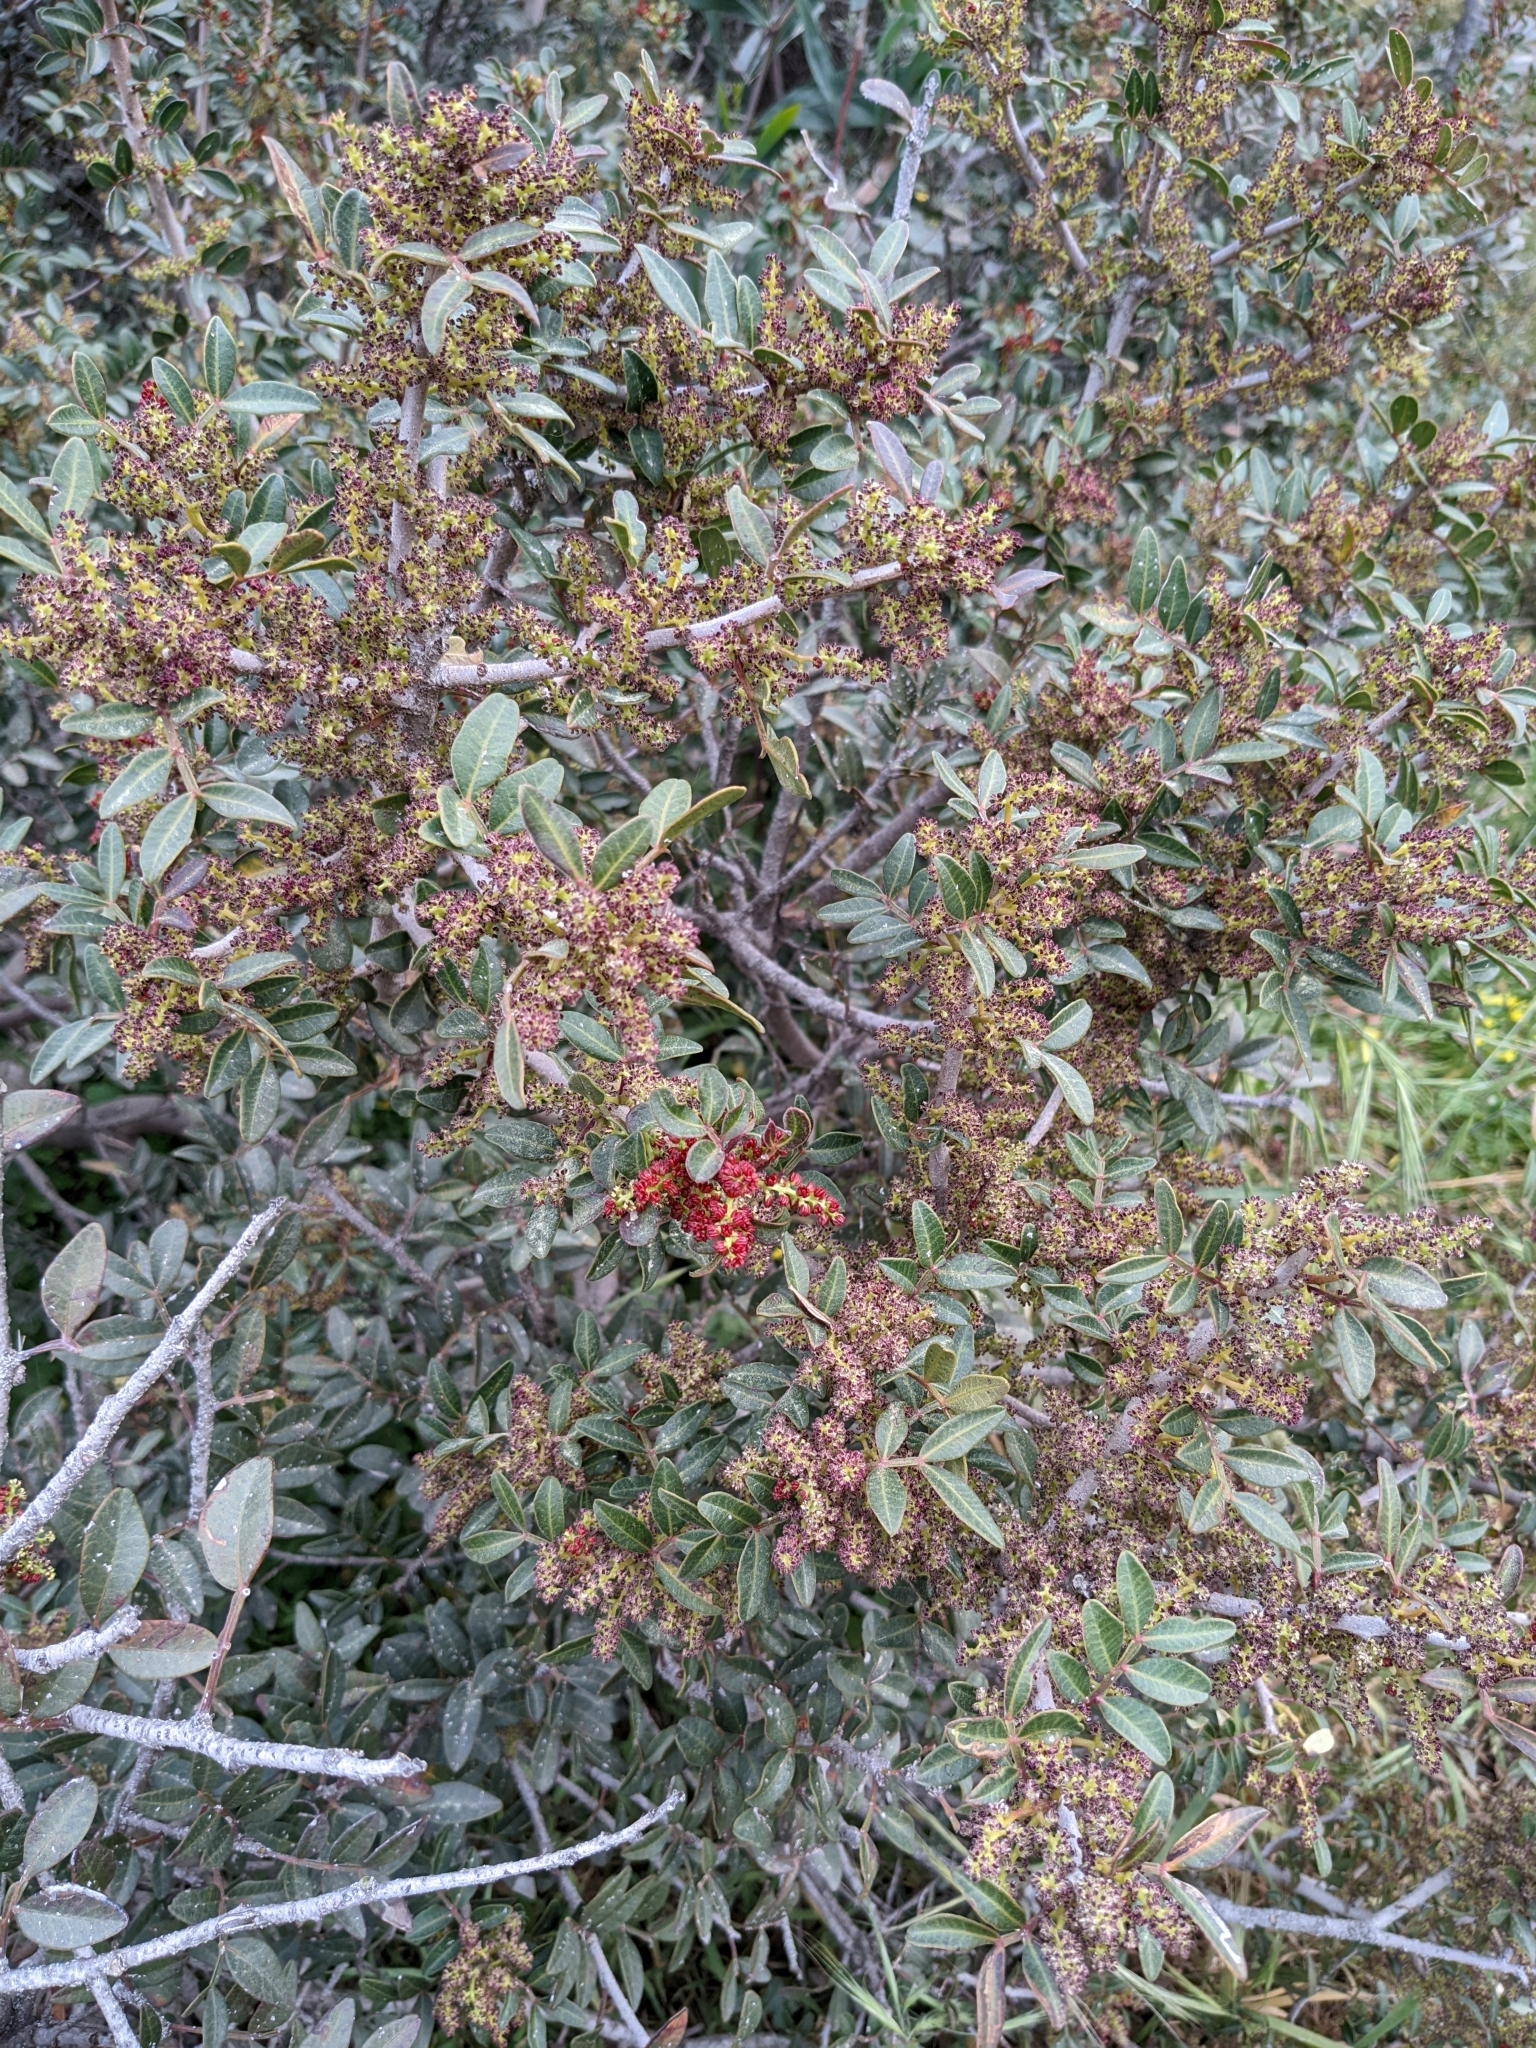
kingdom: Plantae
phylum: Tracheophyta
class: Magnoliopsida
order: Sapindales
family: Anacardiaceae
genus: Pistacia
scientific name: Pistacia lentiscus
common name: Lentisk
